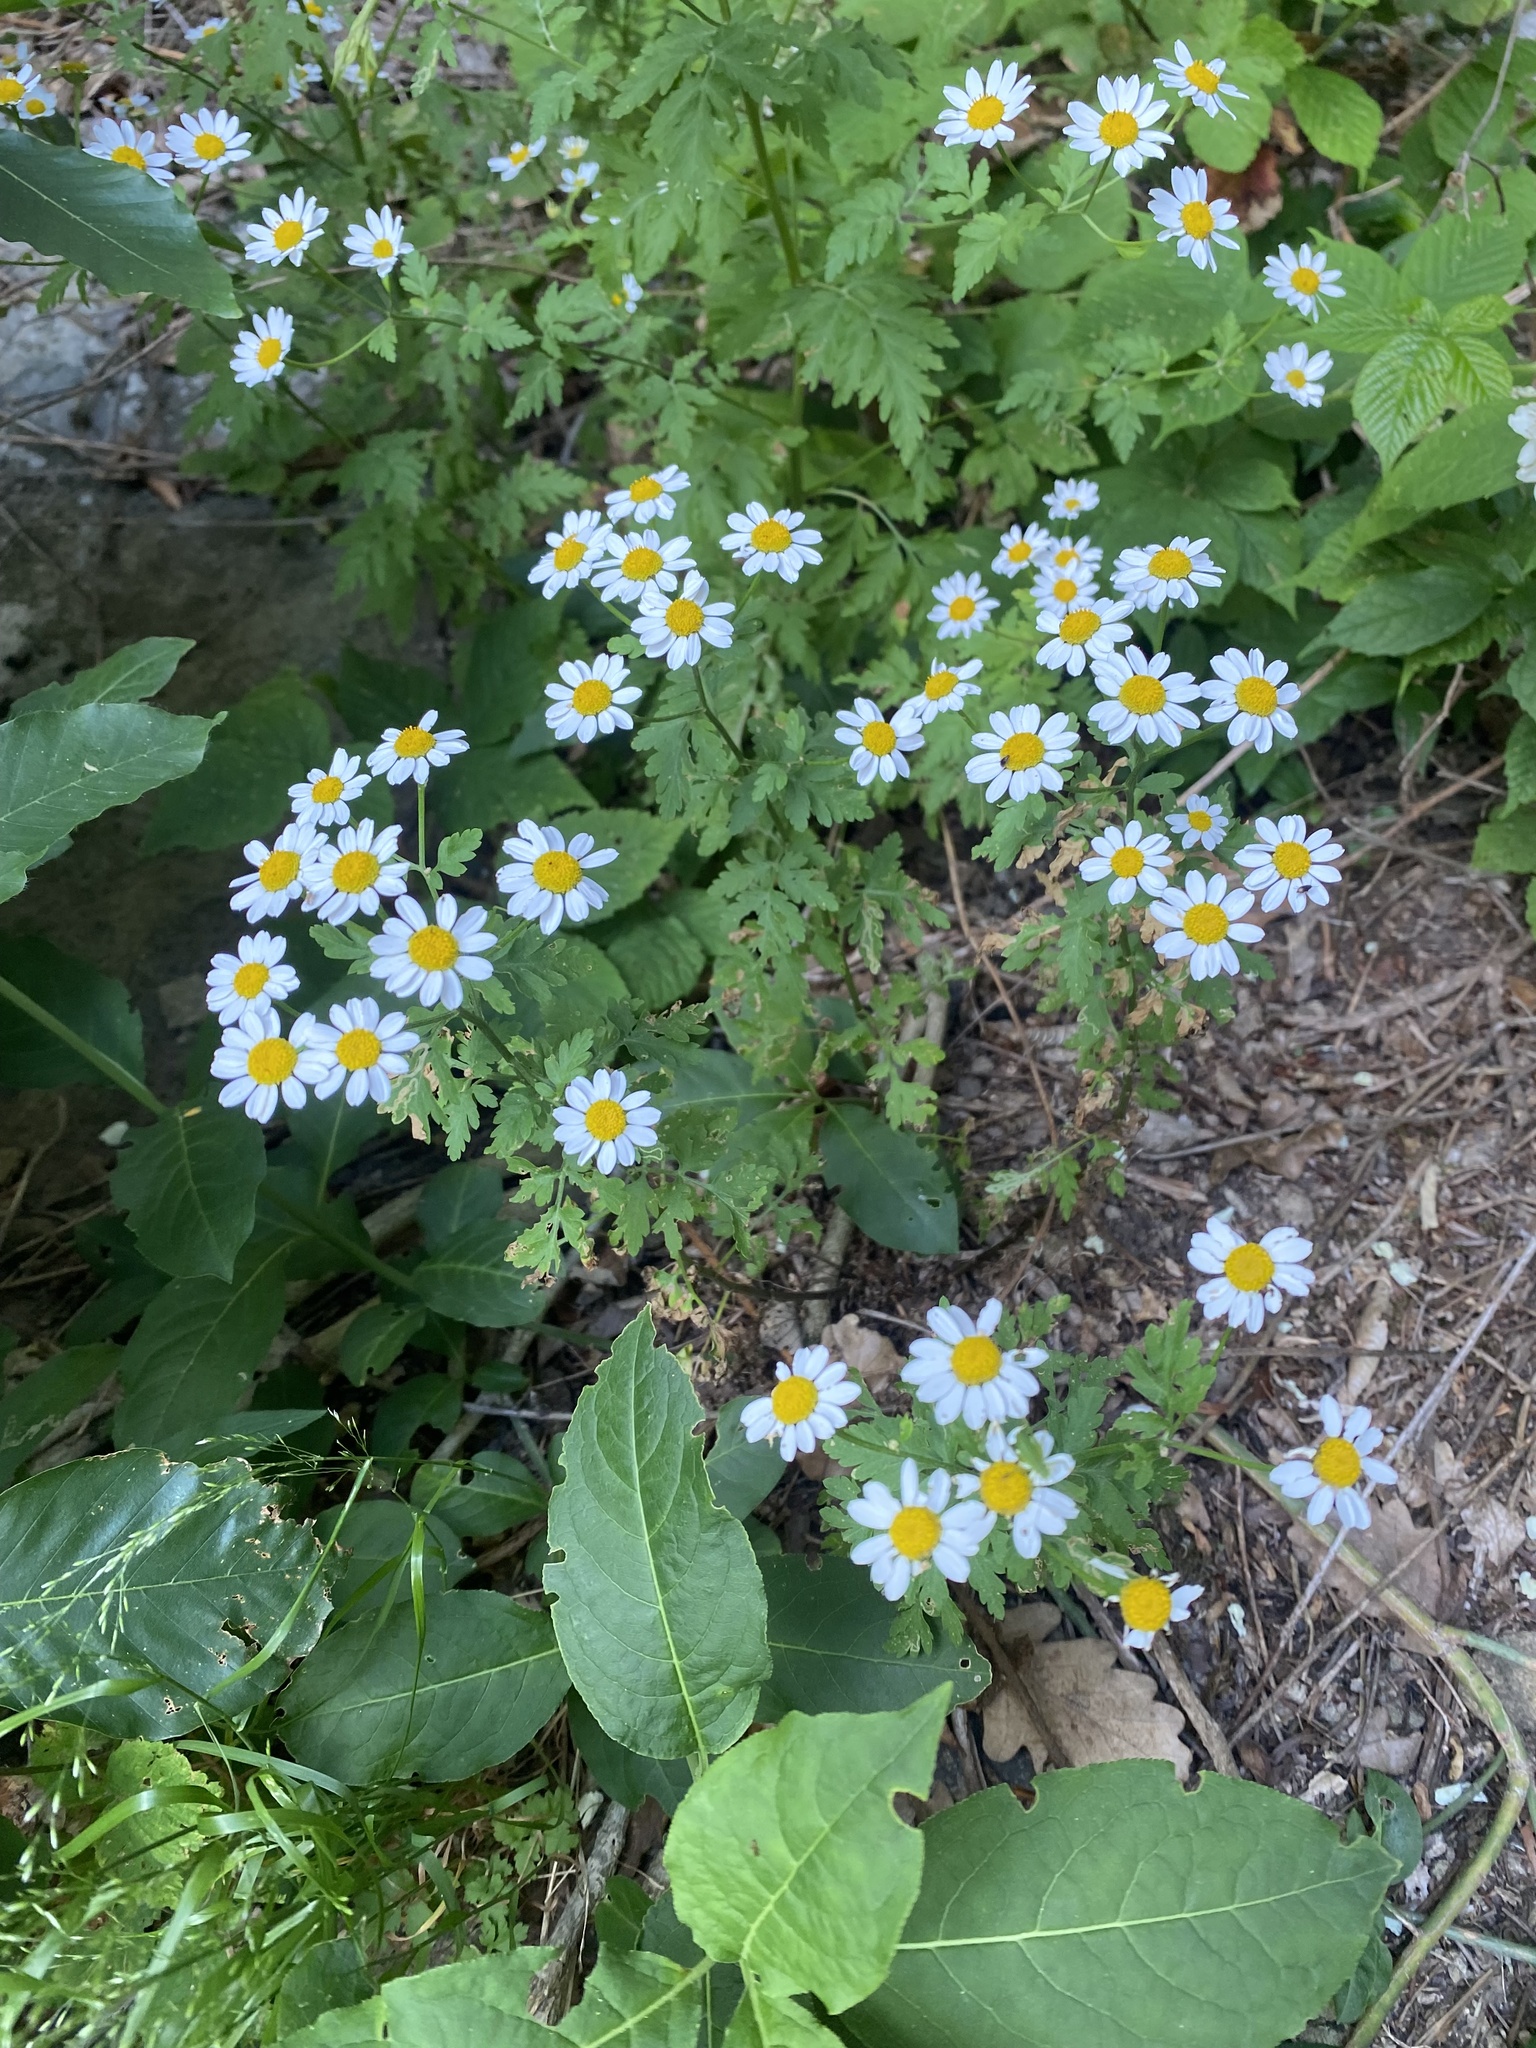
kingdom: Plantae
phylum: Tracheophyta
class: Magnoliopsida
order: Asterales
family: Asteraceae
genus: Tanacetum
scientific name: Tanacetum partheniifolium
